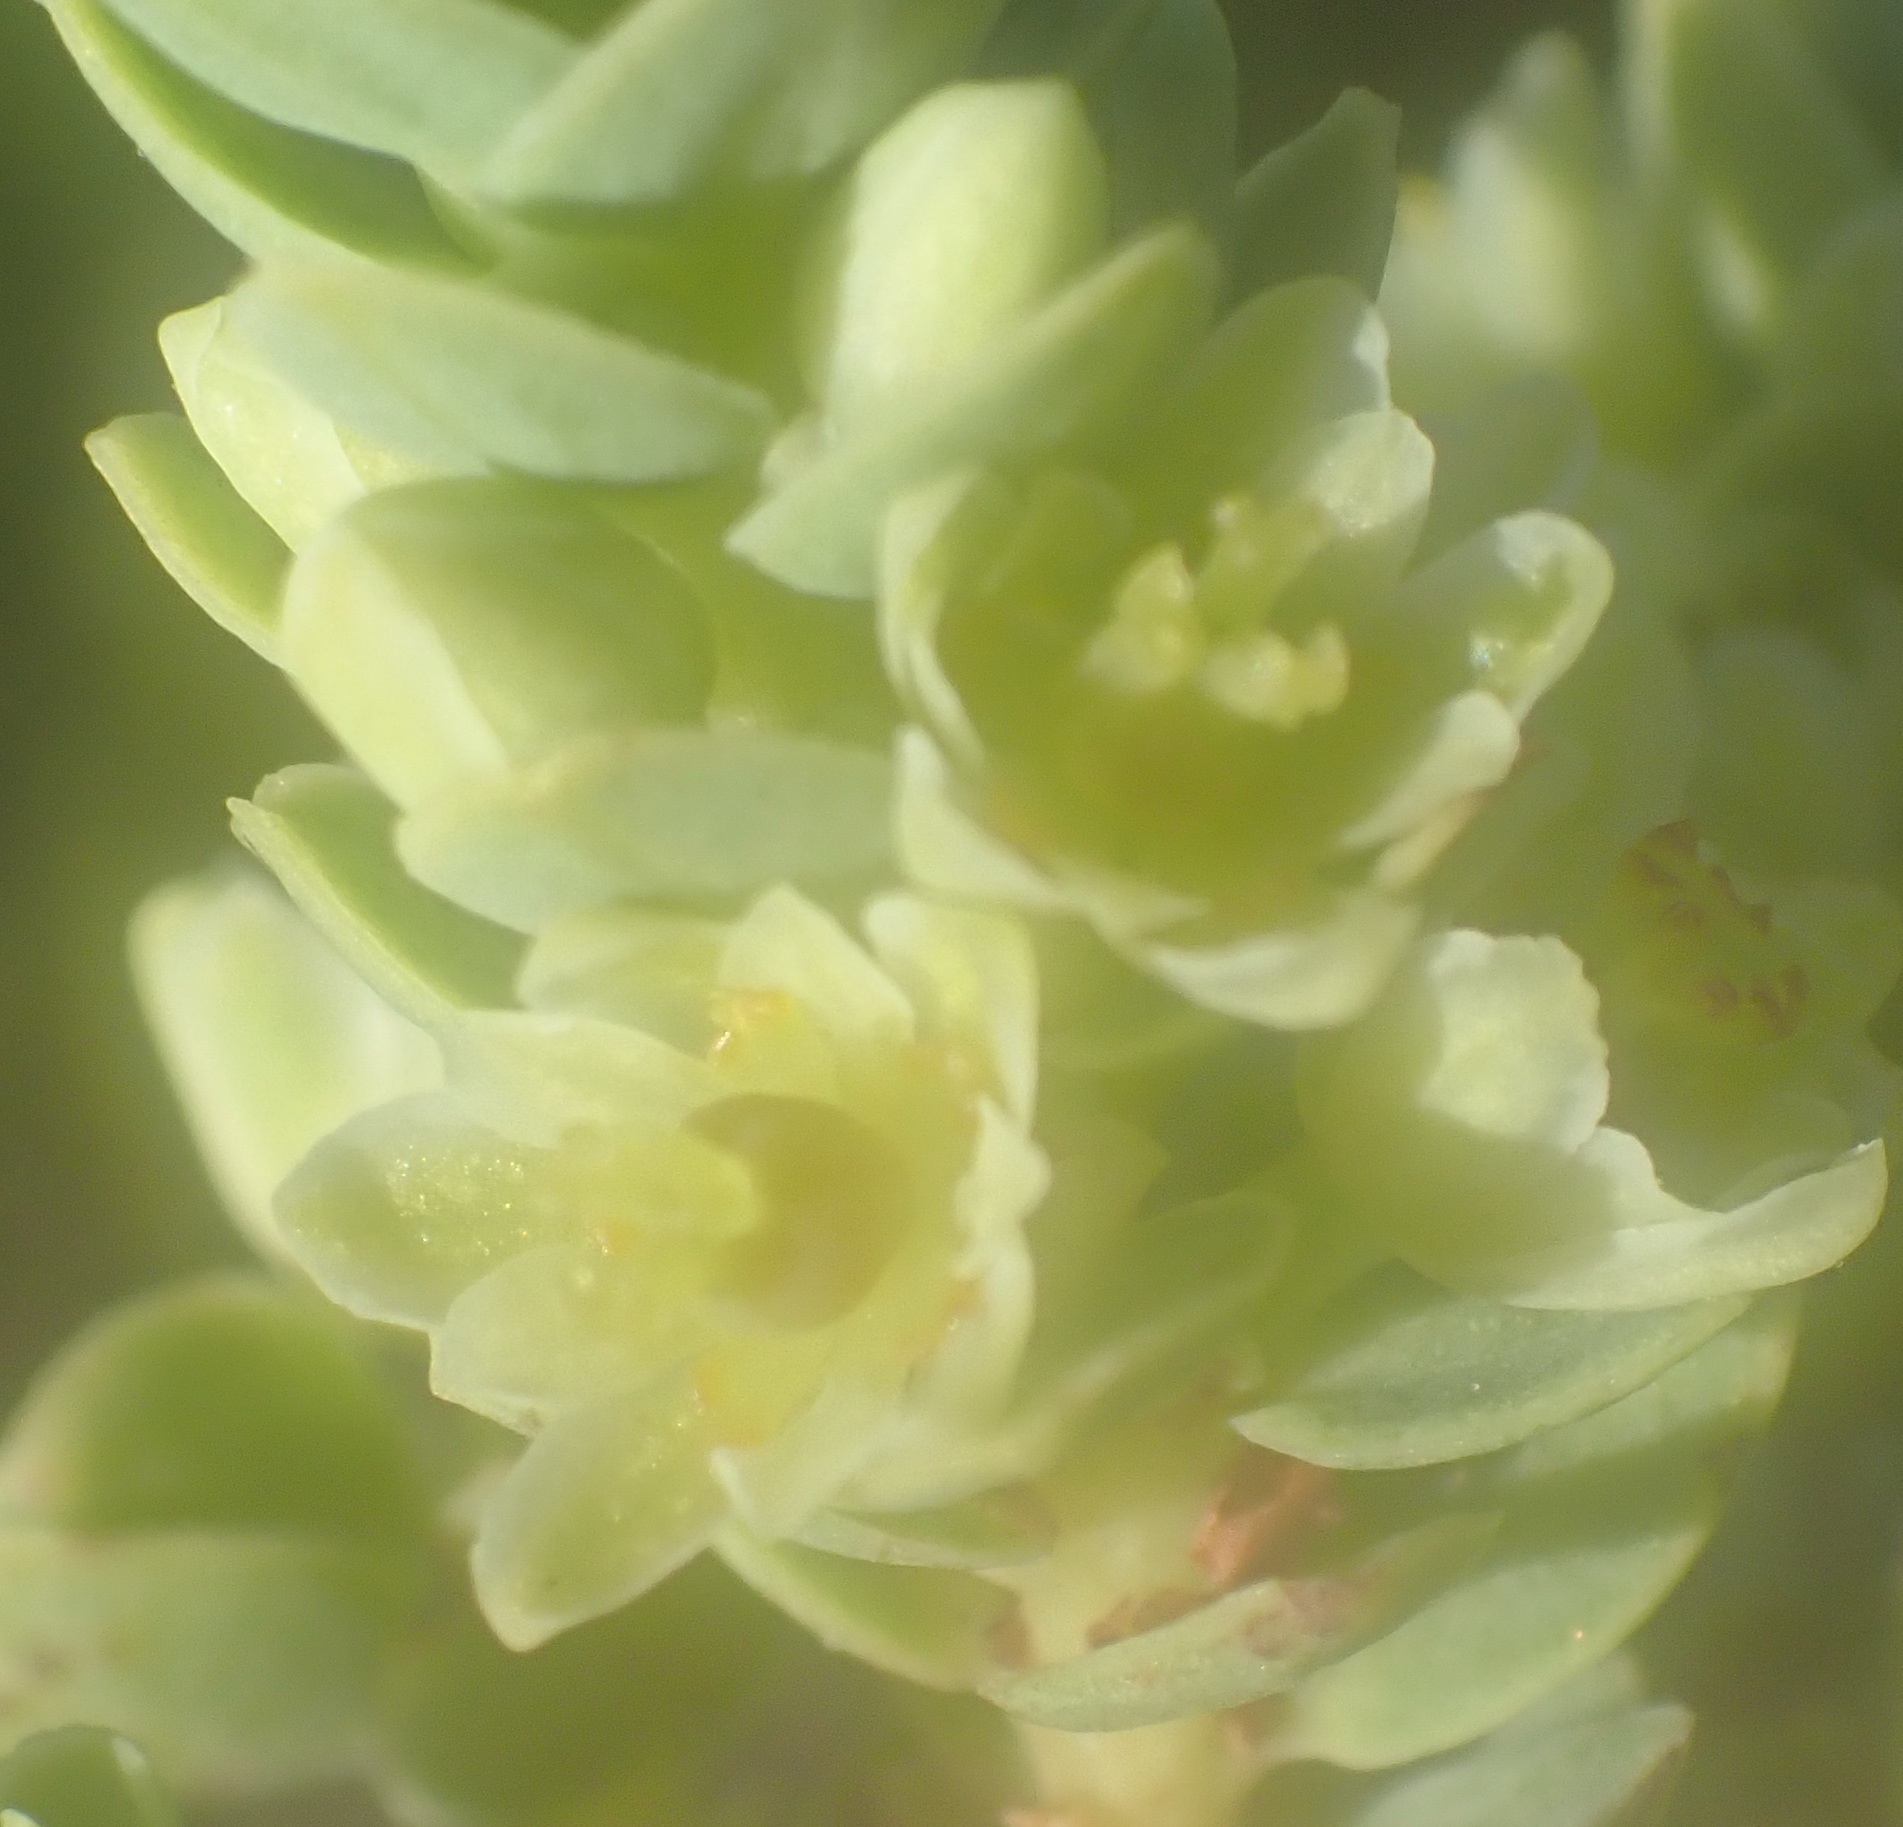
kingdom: Plantae
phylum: Tracheophyta
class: Magnoliopsida
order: Malpighiales
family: Peraceae
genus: Clutia
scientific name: Clutia laxa
